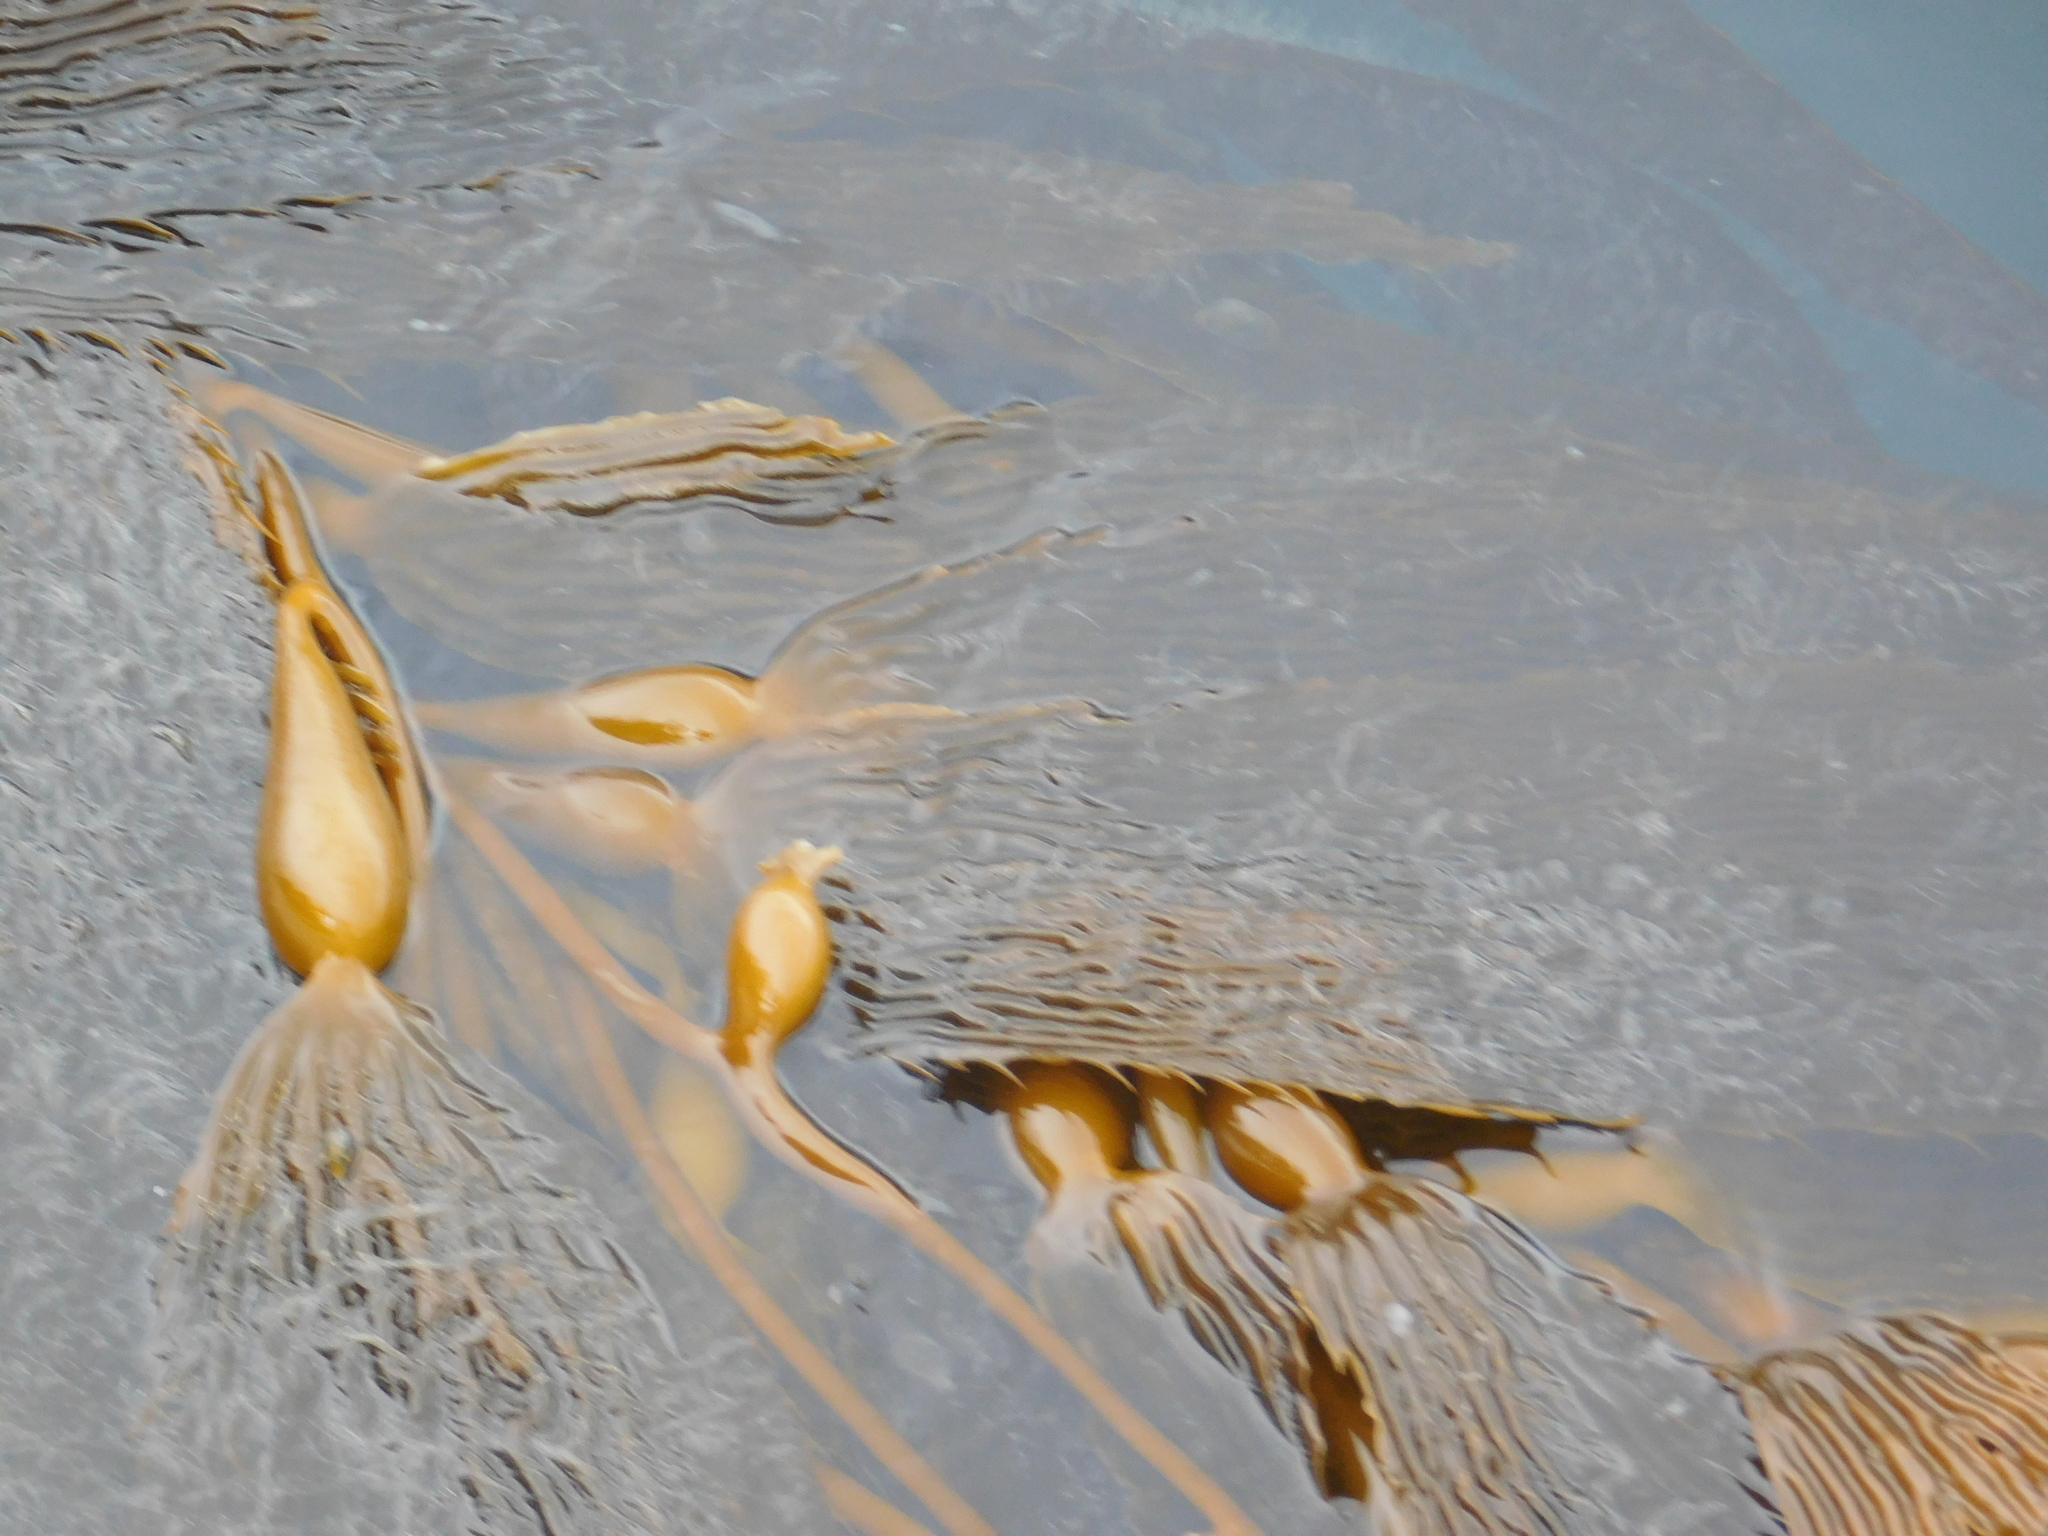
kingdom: Chromista
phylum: Ochrophyta
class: Phaeophyceae
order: Laminariales
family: Laminariaceae
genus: Macrocystis
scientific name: Macrocystis pyrifera
